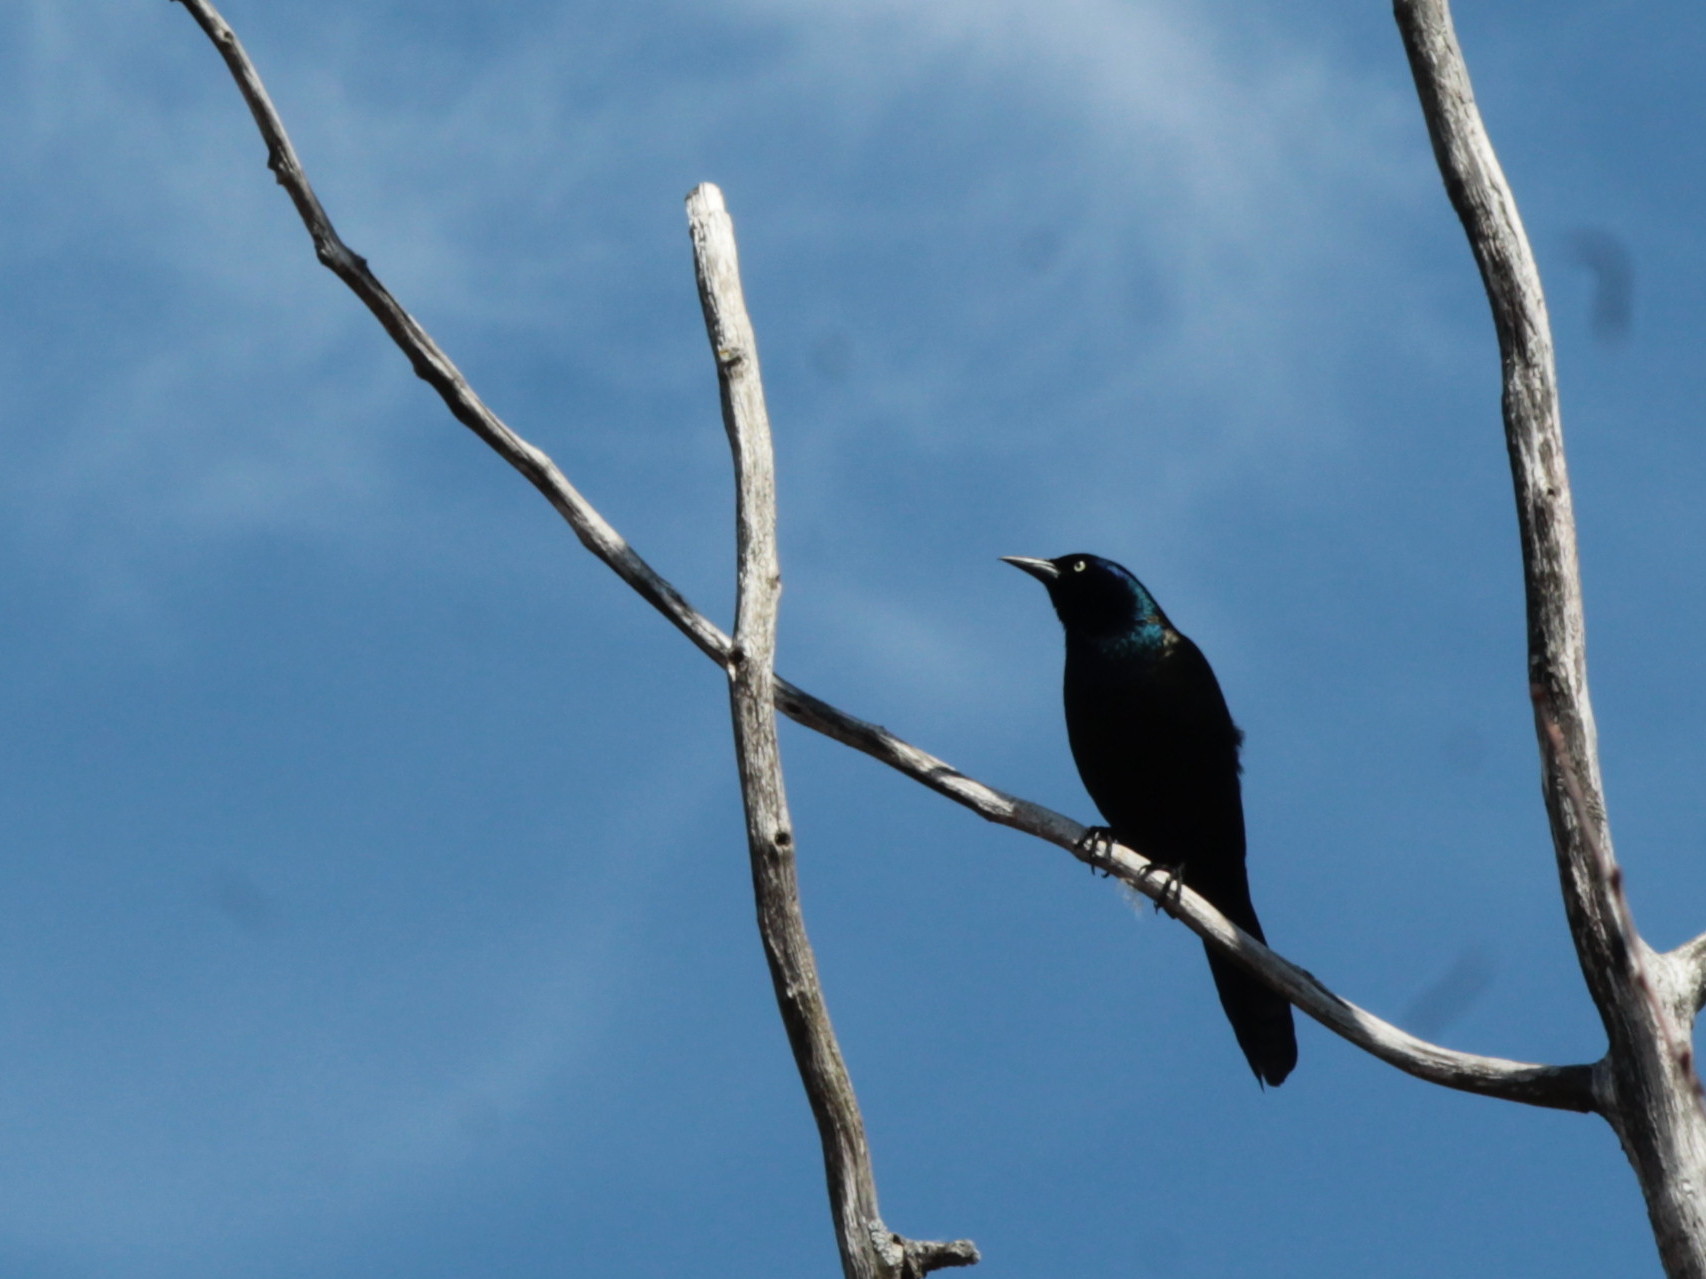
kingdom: Animalia
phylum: Chordata
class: Aves
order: Passeriformes
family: Icteridae
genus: Quiscalus
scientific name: Quiscalus quiscula
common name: Common grackle
